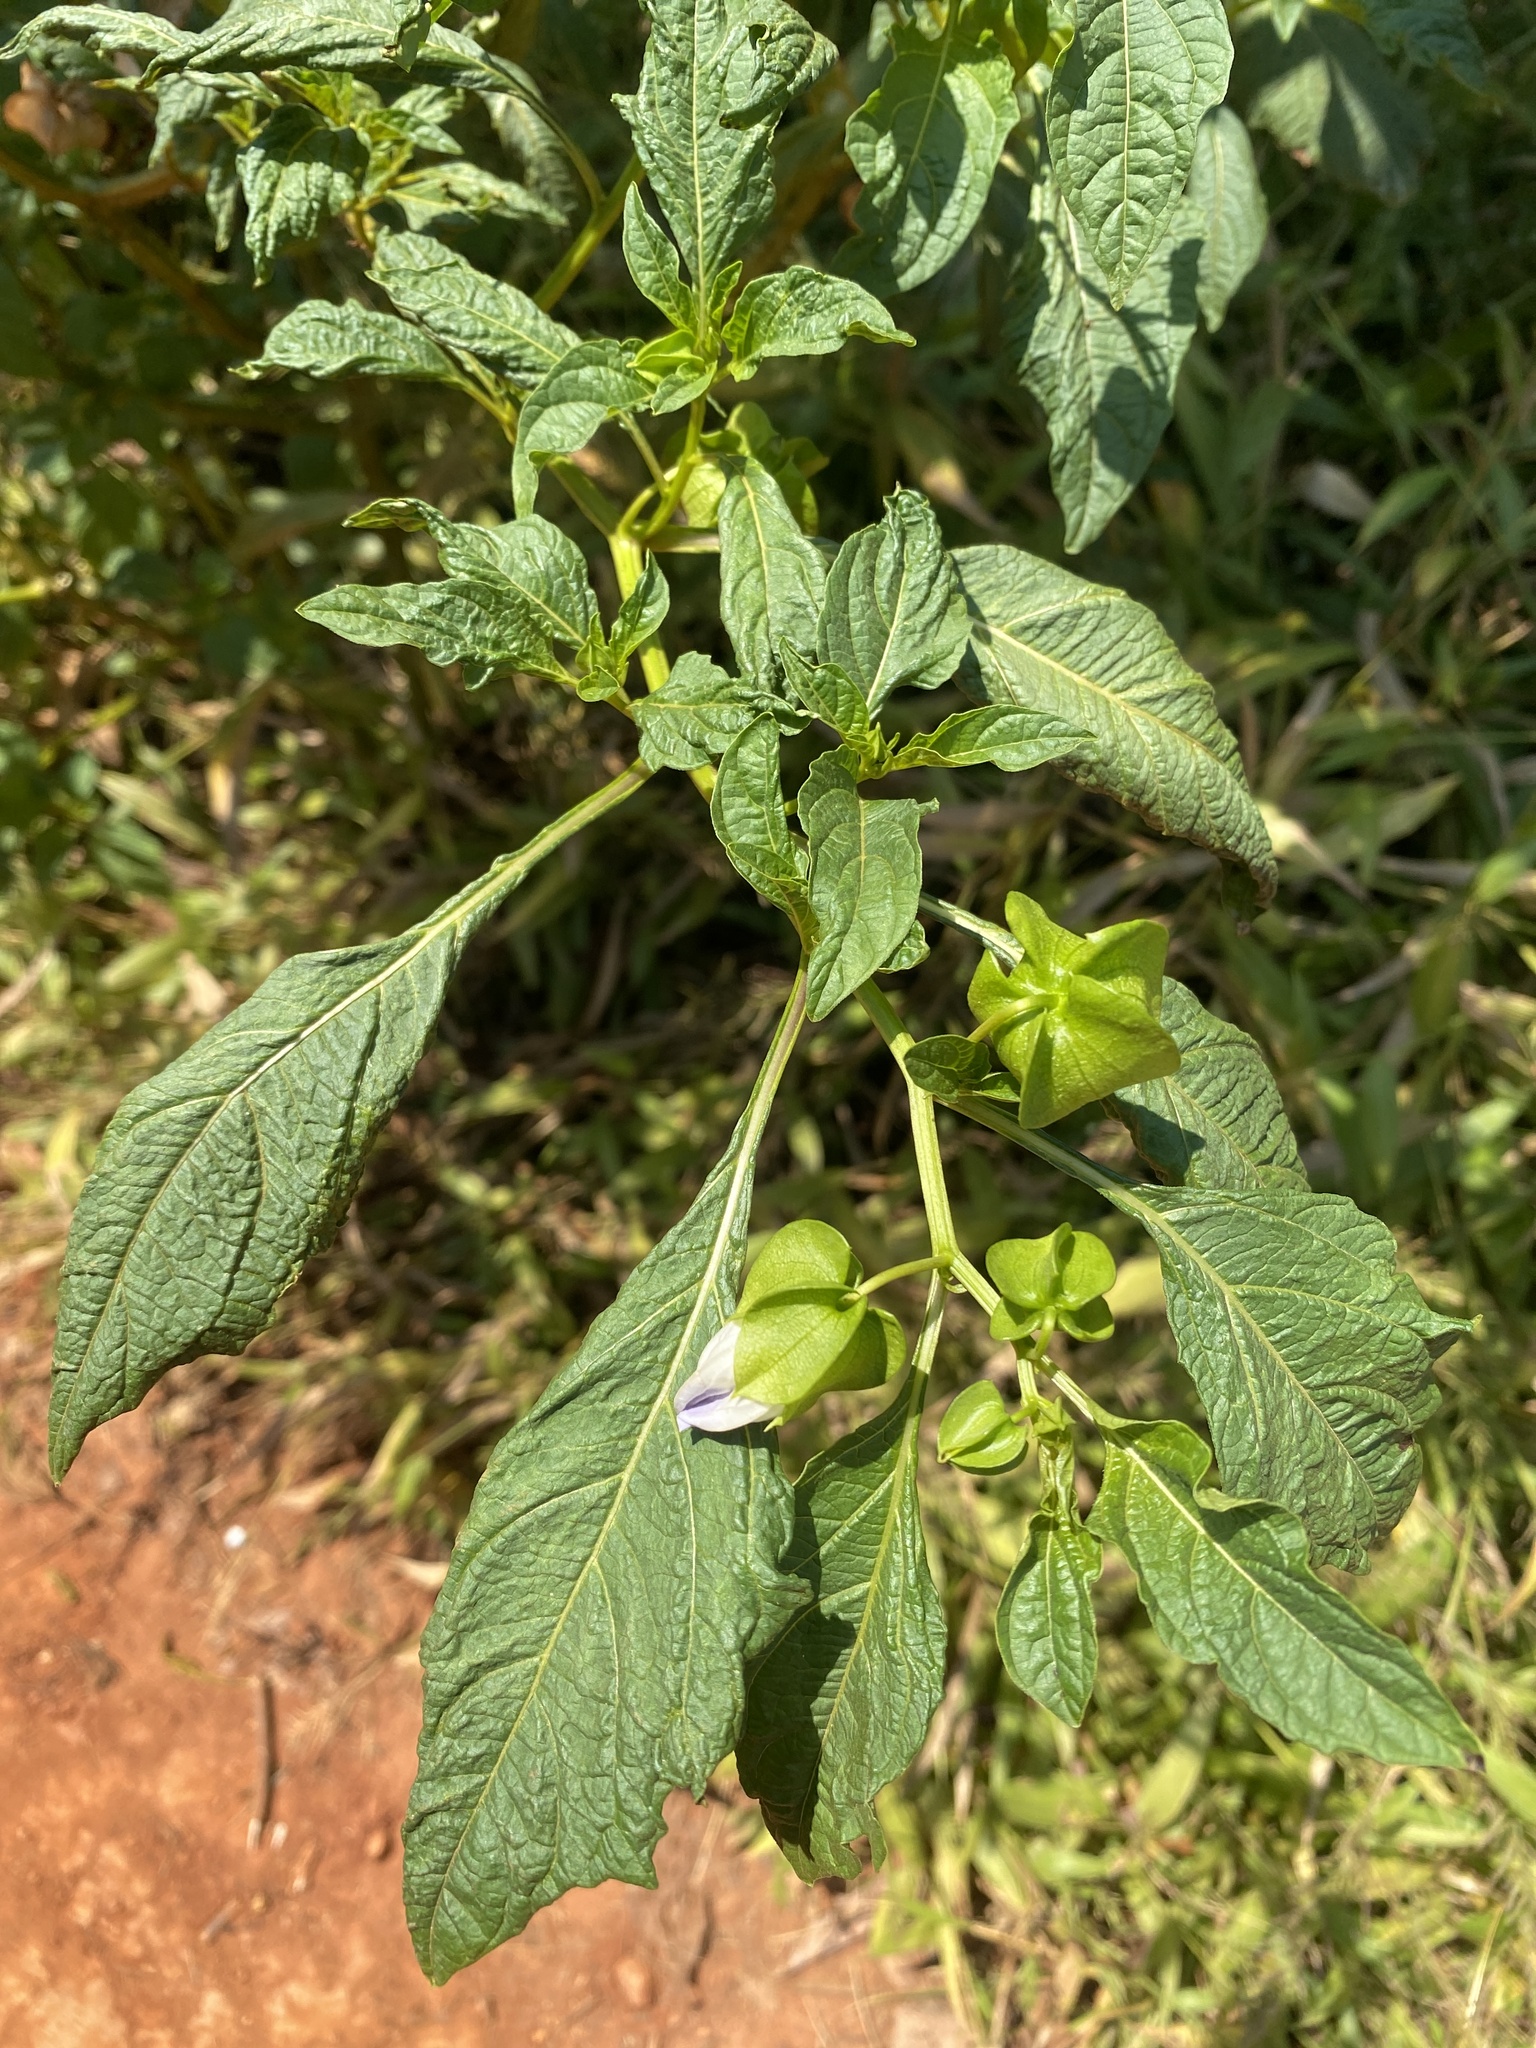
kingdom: Plantae
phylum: Tracheophyta
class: Magnoliopsida
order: Solanales
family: Solanaceae
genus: Nicandra
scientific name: Nicandra physalodes
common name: Apple-of-peru
